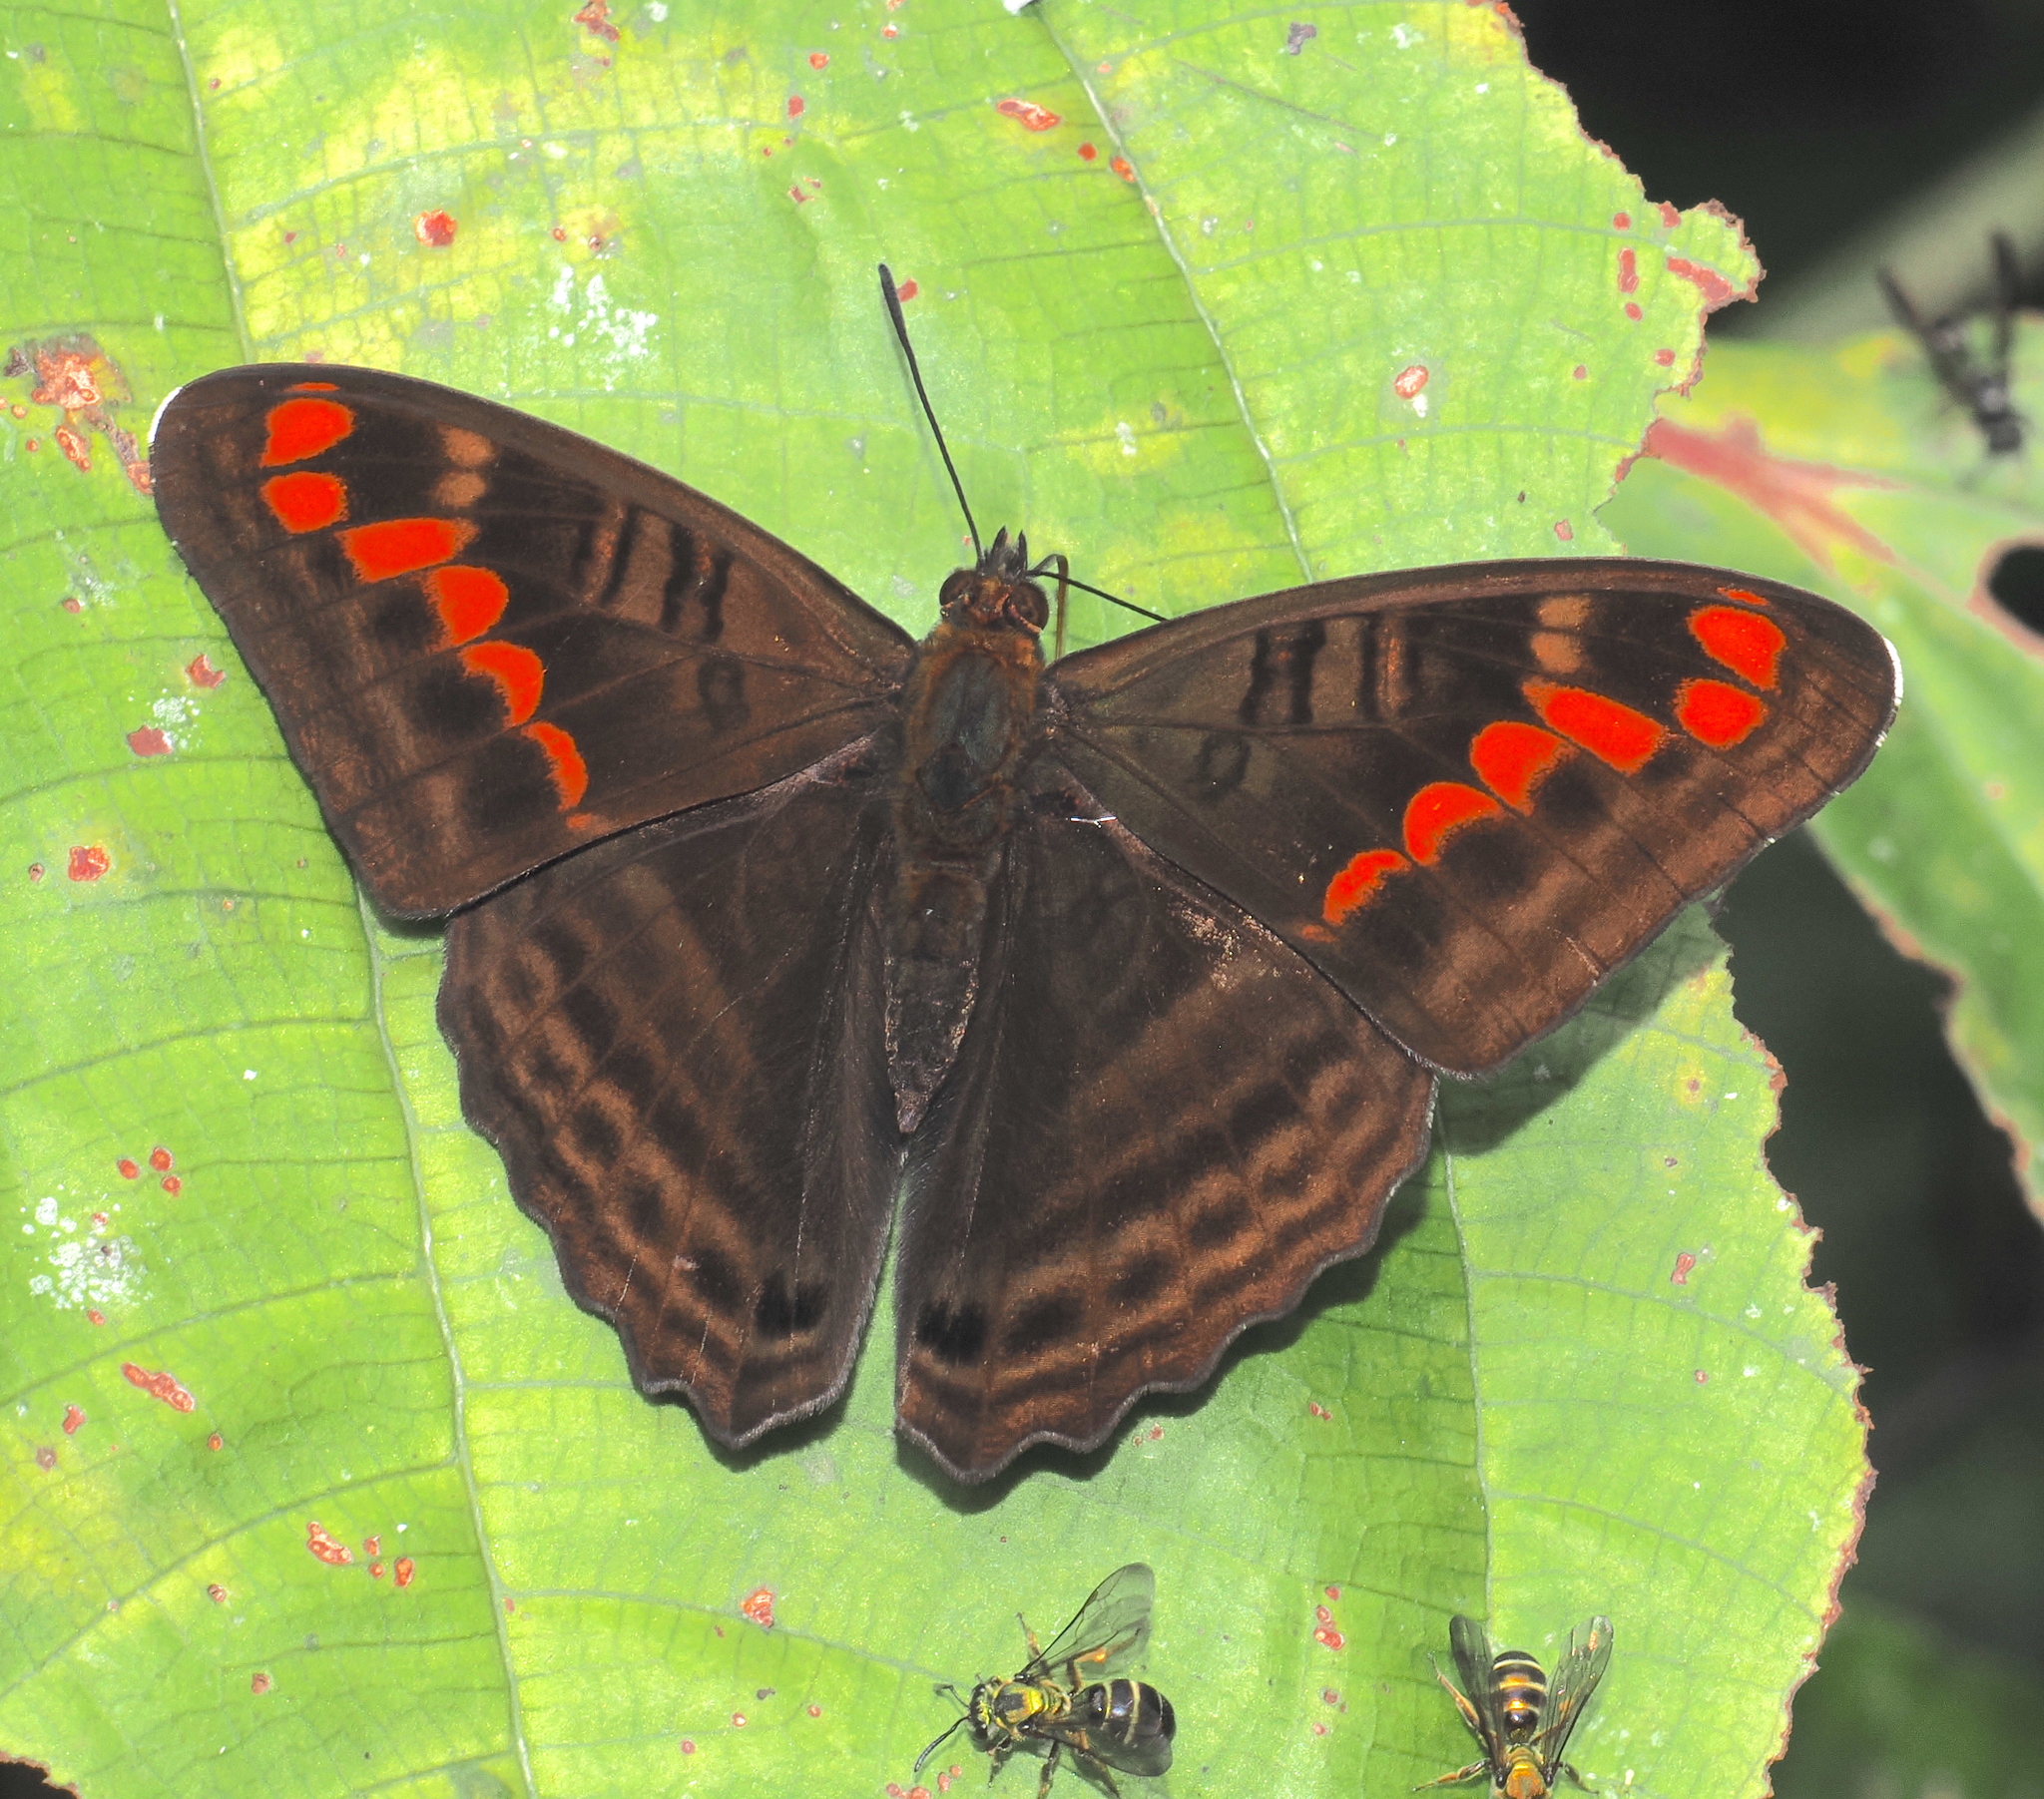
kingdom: Animalia
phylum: Arthropoda
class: Insecta
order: Lepidoptera
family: Nymphalidae
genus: Limenitis
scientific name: Limenitis levona
